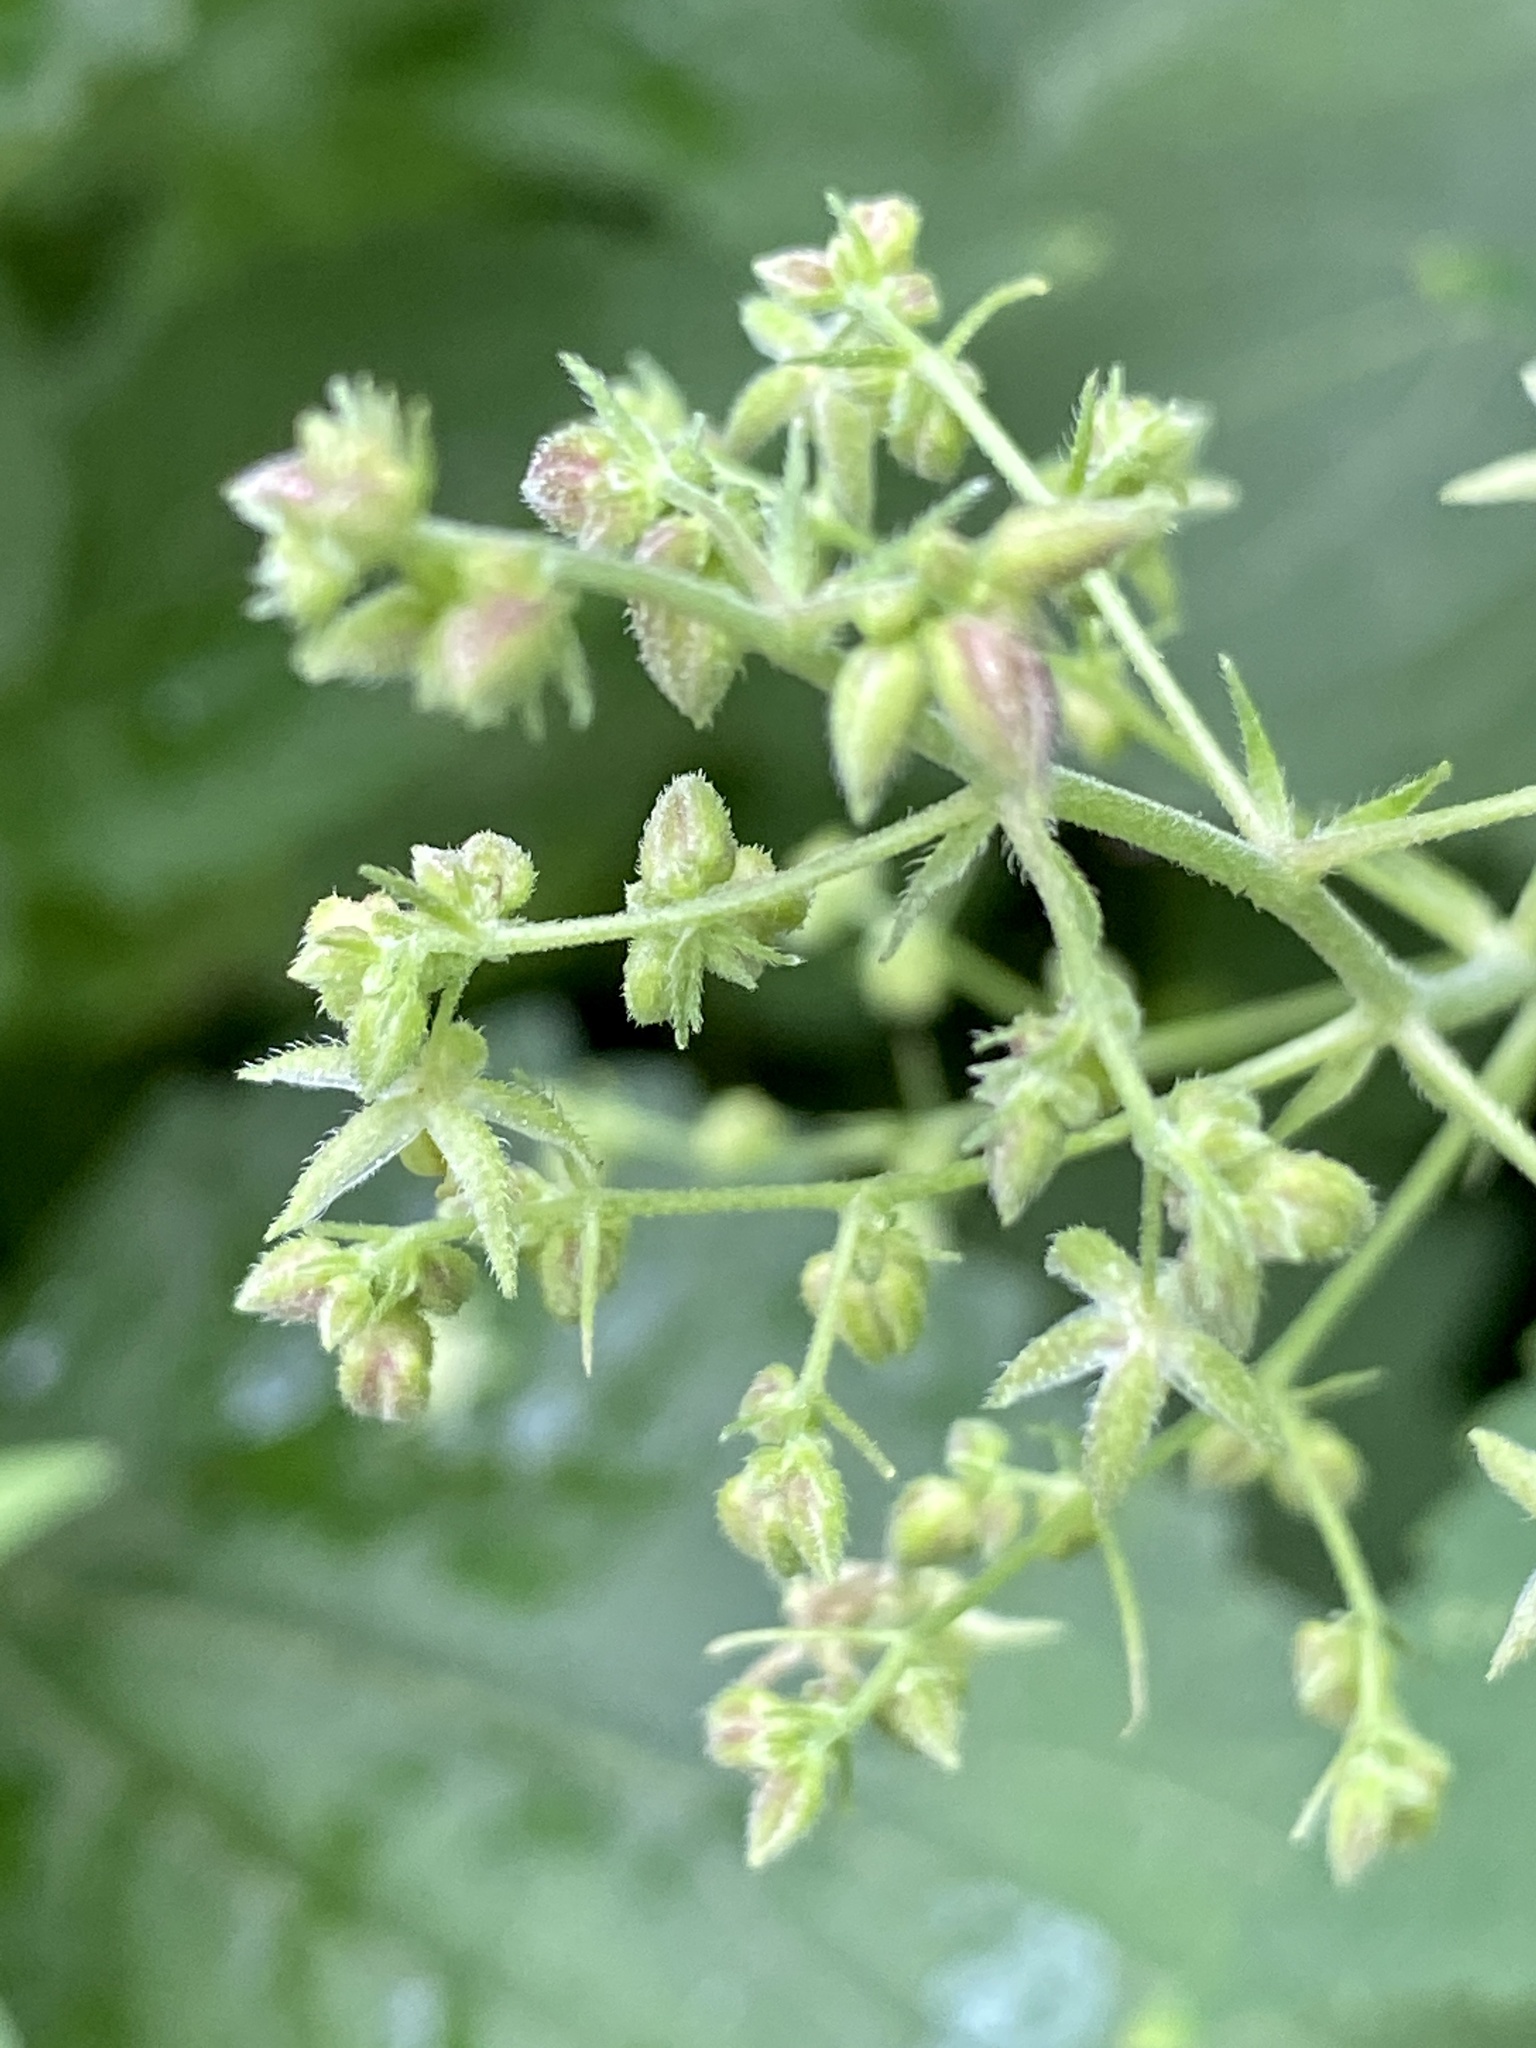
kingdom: Plantae
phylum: Tracheophyta
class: Magnoliopsida
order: Rosales
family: Cannabaceae
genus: Humulus
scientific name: Humulus scandens
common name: Japanese hop
